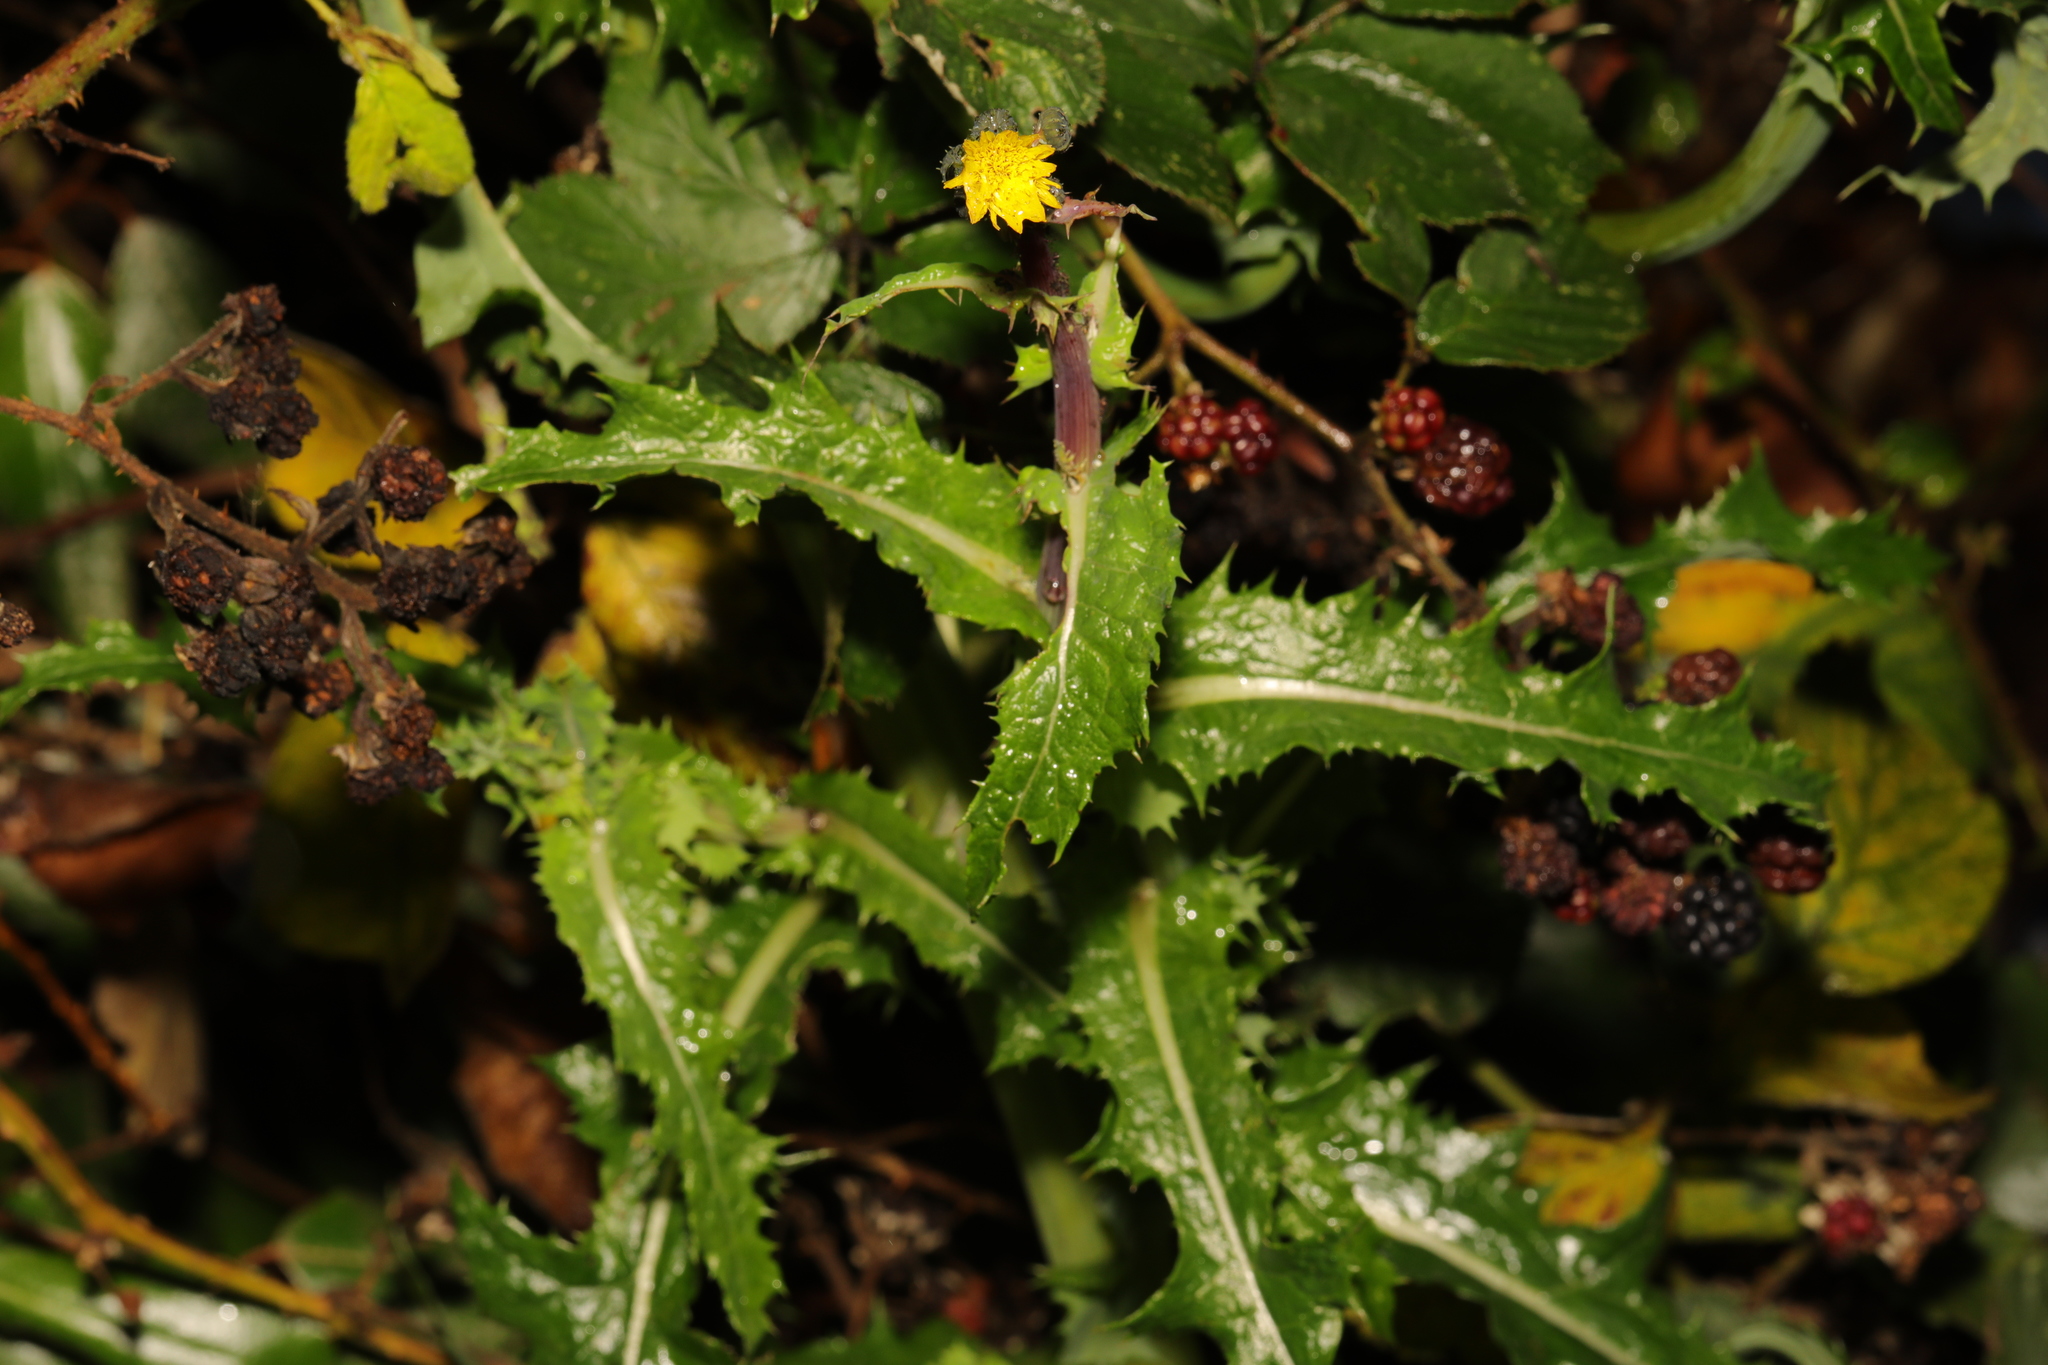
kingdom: Plantae
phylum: Tracheophyta
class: Magnoliopsida
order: Asterales
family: Asteraceae
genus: Sonchus
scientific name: Sonchus asper
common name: Prickly sow-thistle
